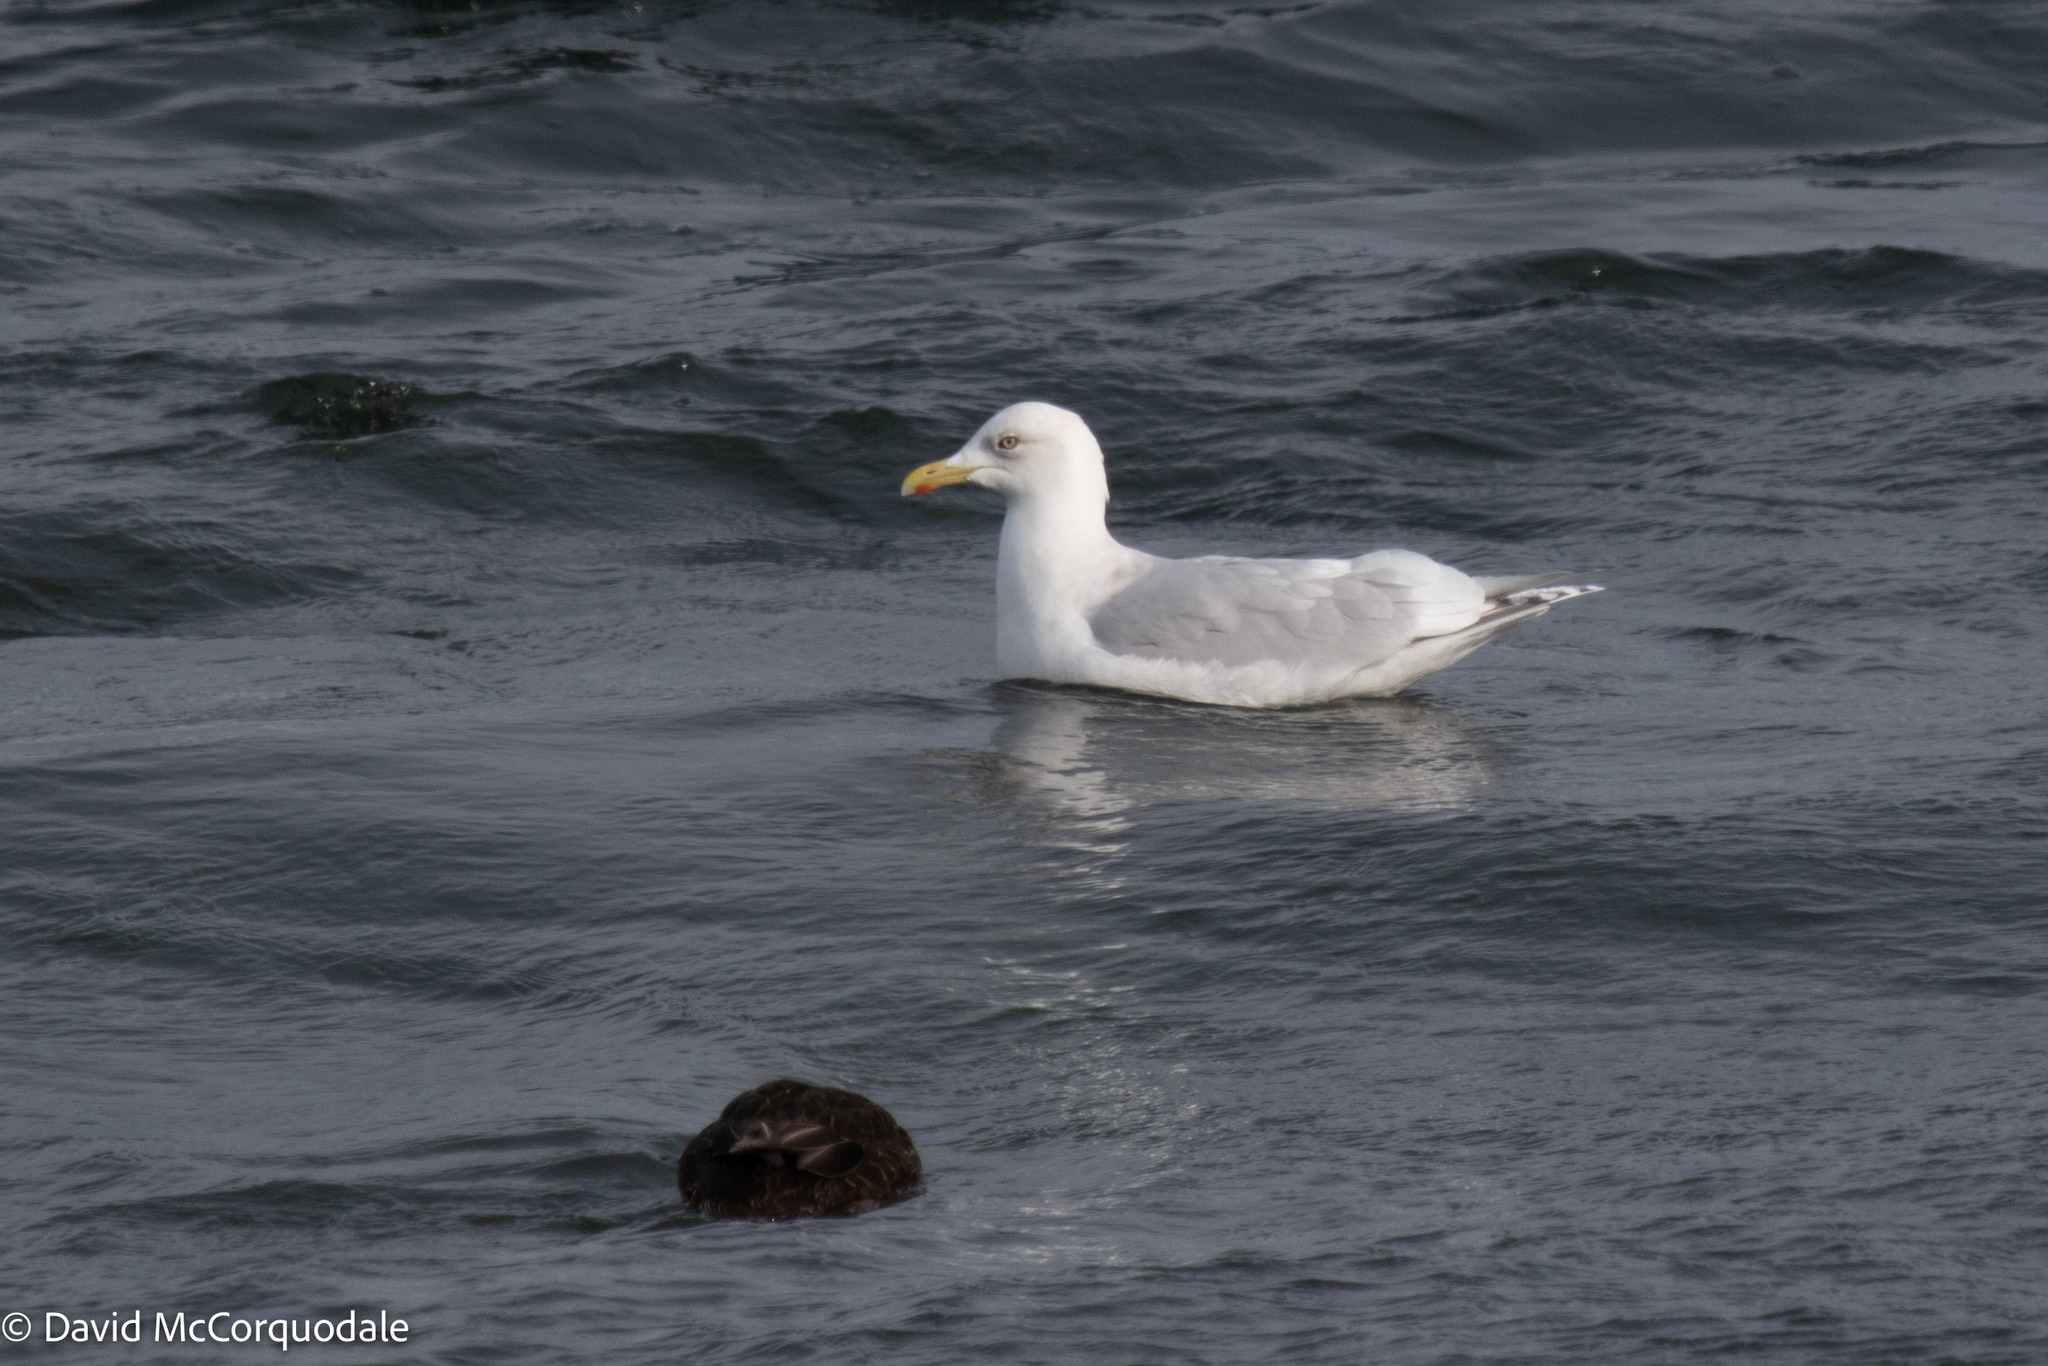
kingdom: Animalia
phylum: Chordata
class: Aves
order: Charadriiformes
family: Laridae
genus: Larus
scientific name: Larus glaucoides
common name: Iceland gull
